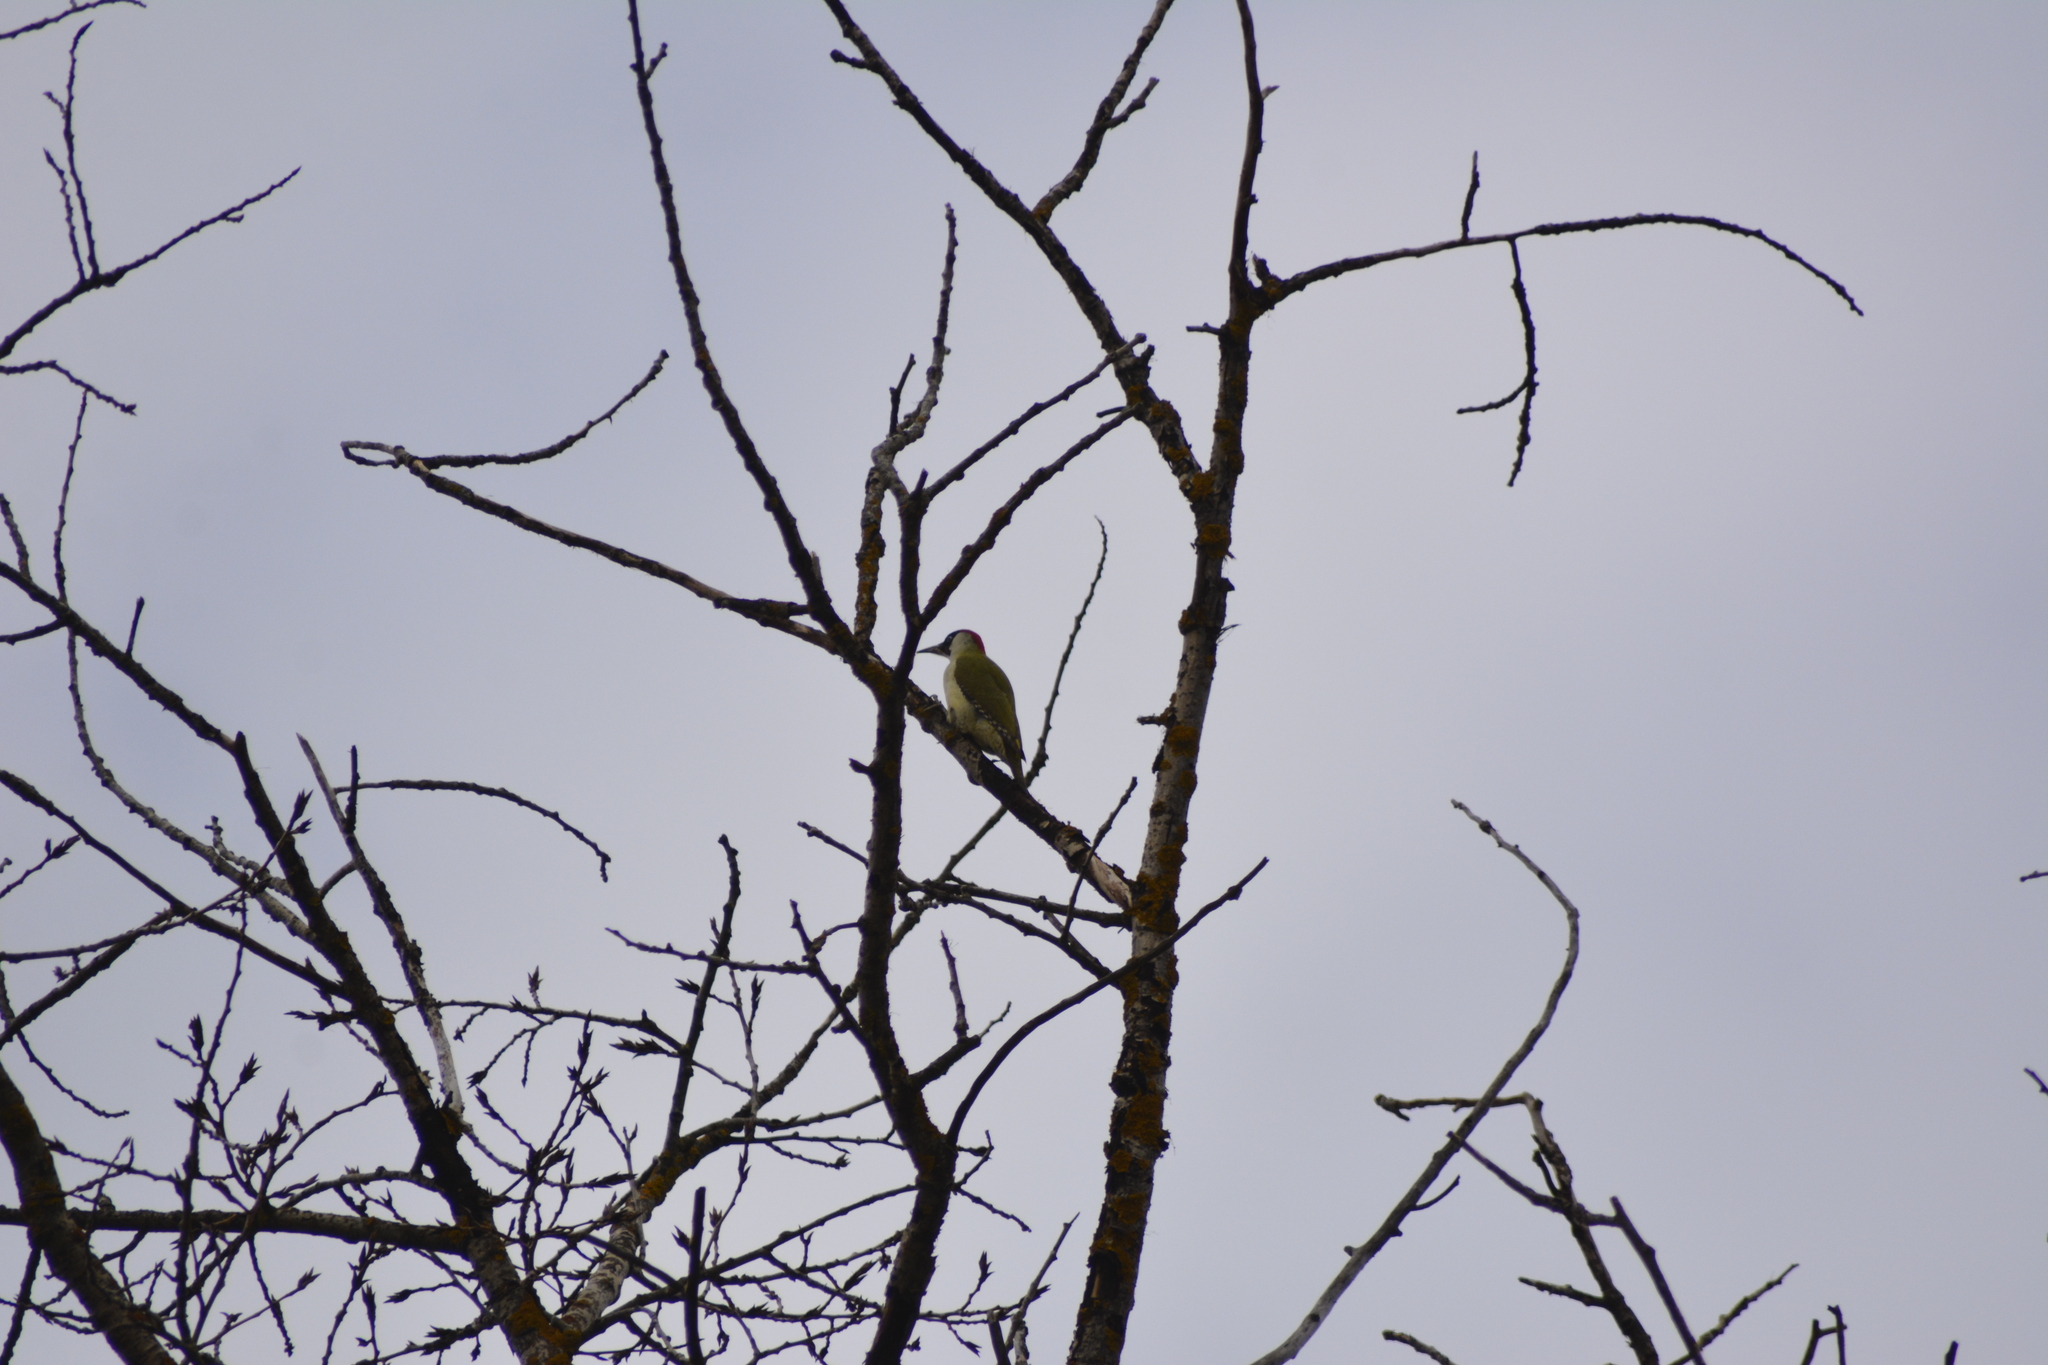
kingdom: Animalia
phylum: Chordata
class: Aves
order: Piciformes
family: Picidae
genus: Picus
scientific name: Picus viridis
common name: European green woodpecker
